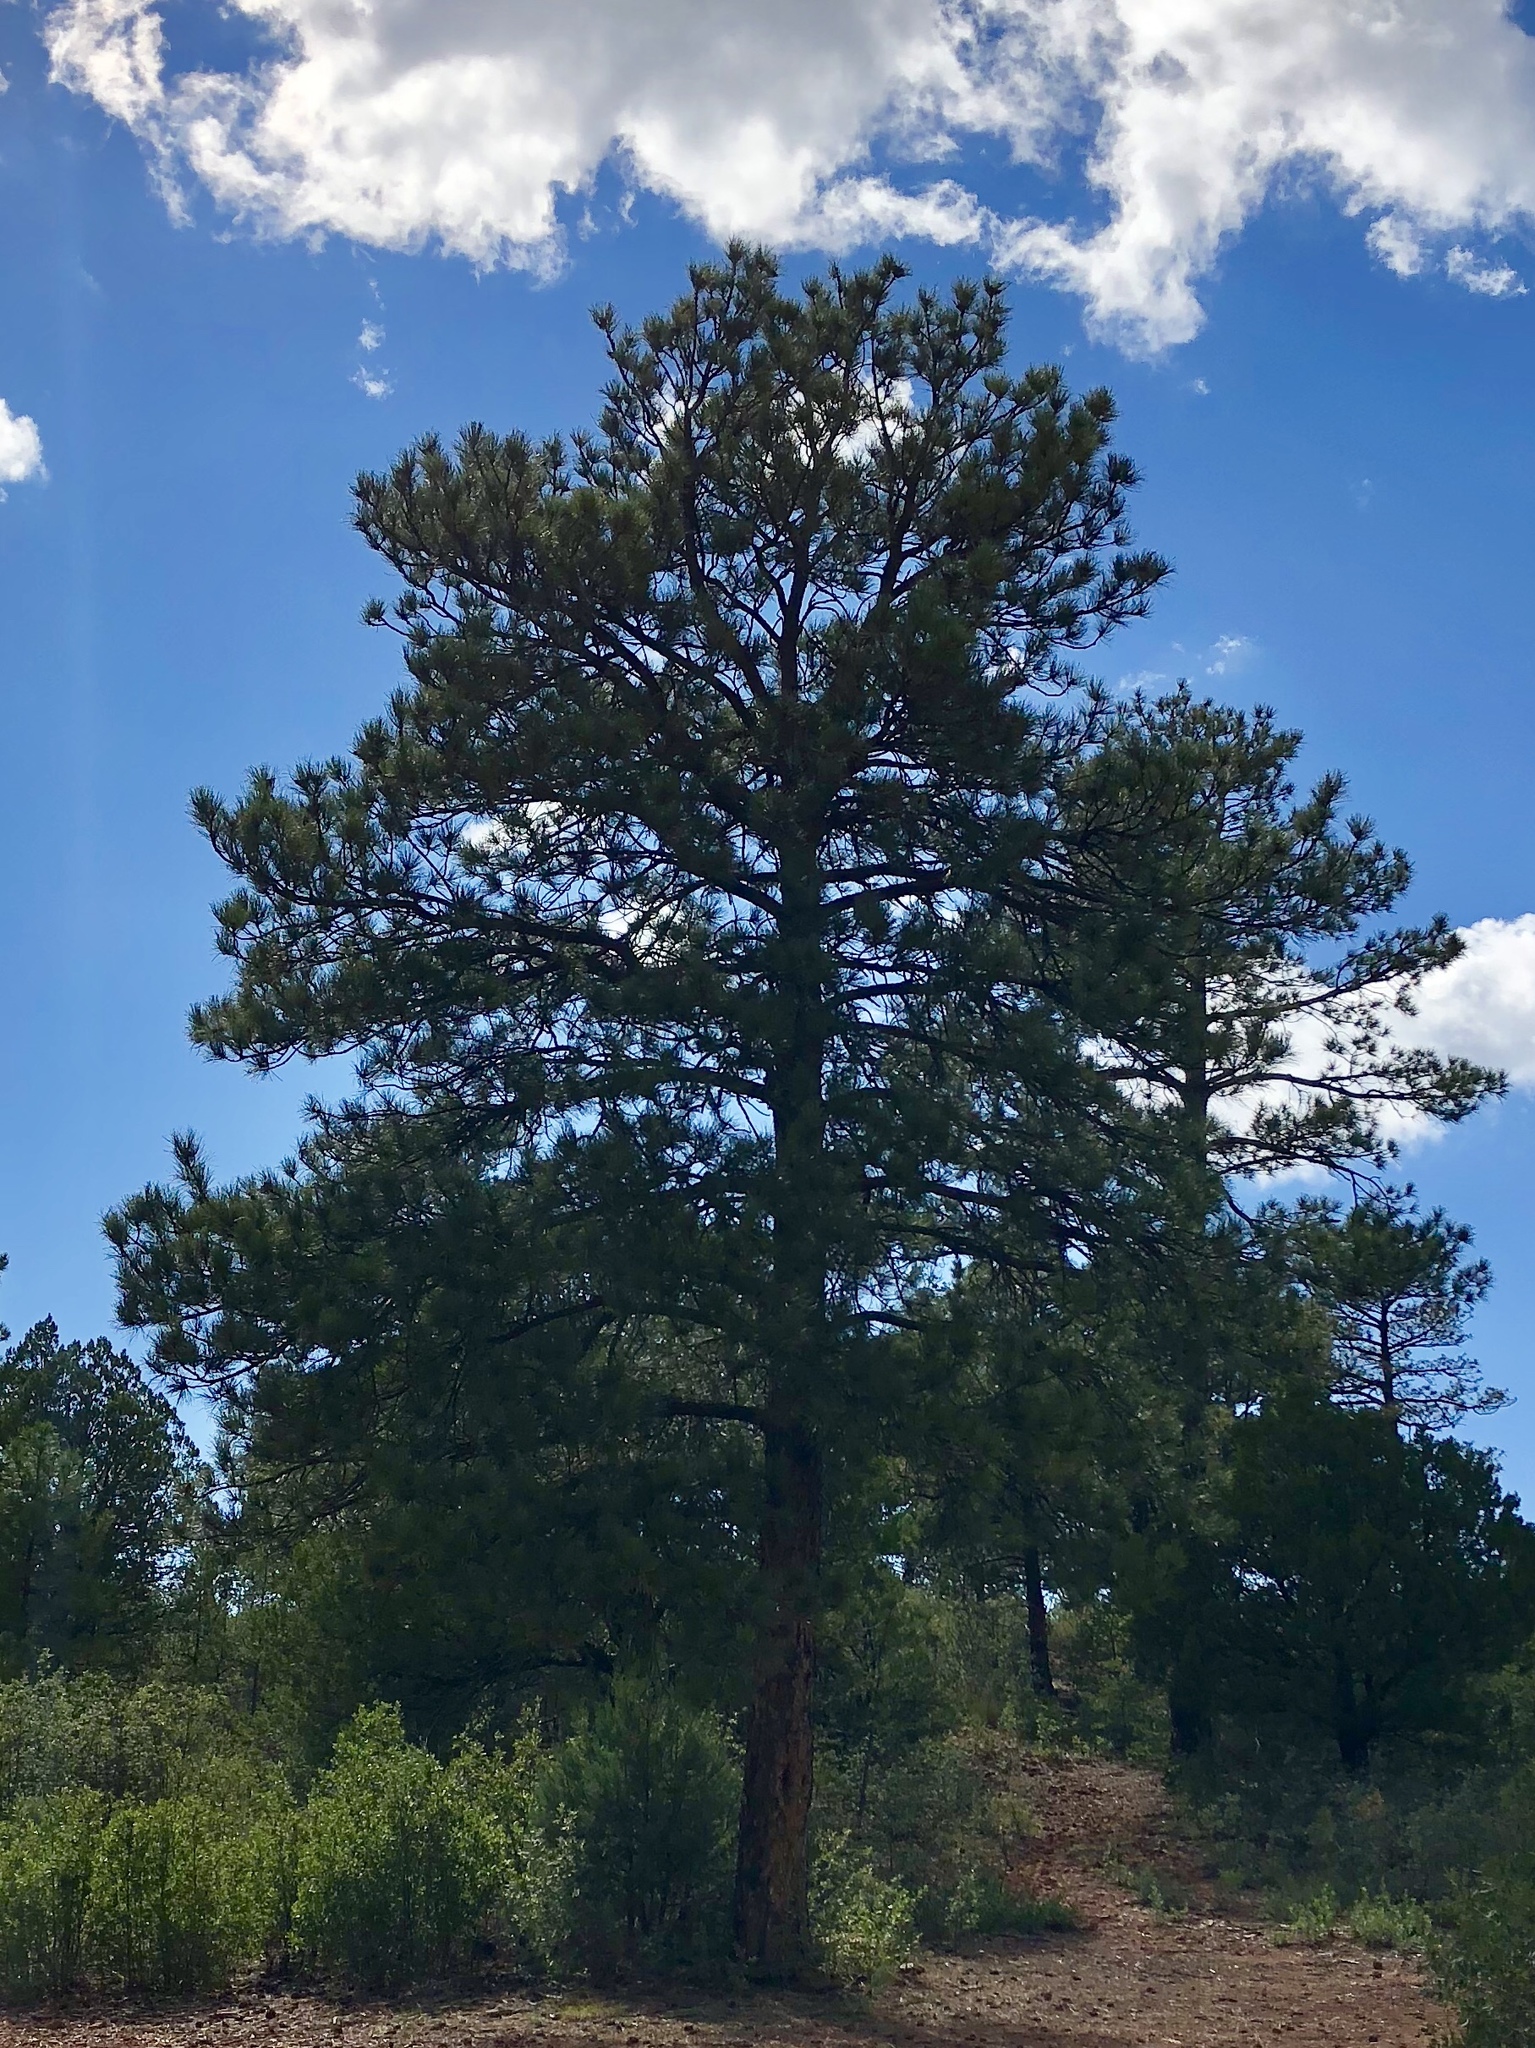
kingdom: Plantae
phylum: Tracheophyta
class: Pinopsida
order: Pinales
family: Pinaceae
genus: Pinus
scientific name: Pinus ponderosa
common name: Western yellow-pine
